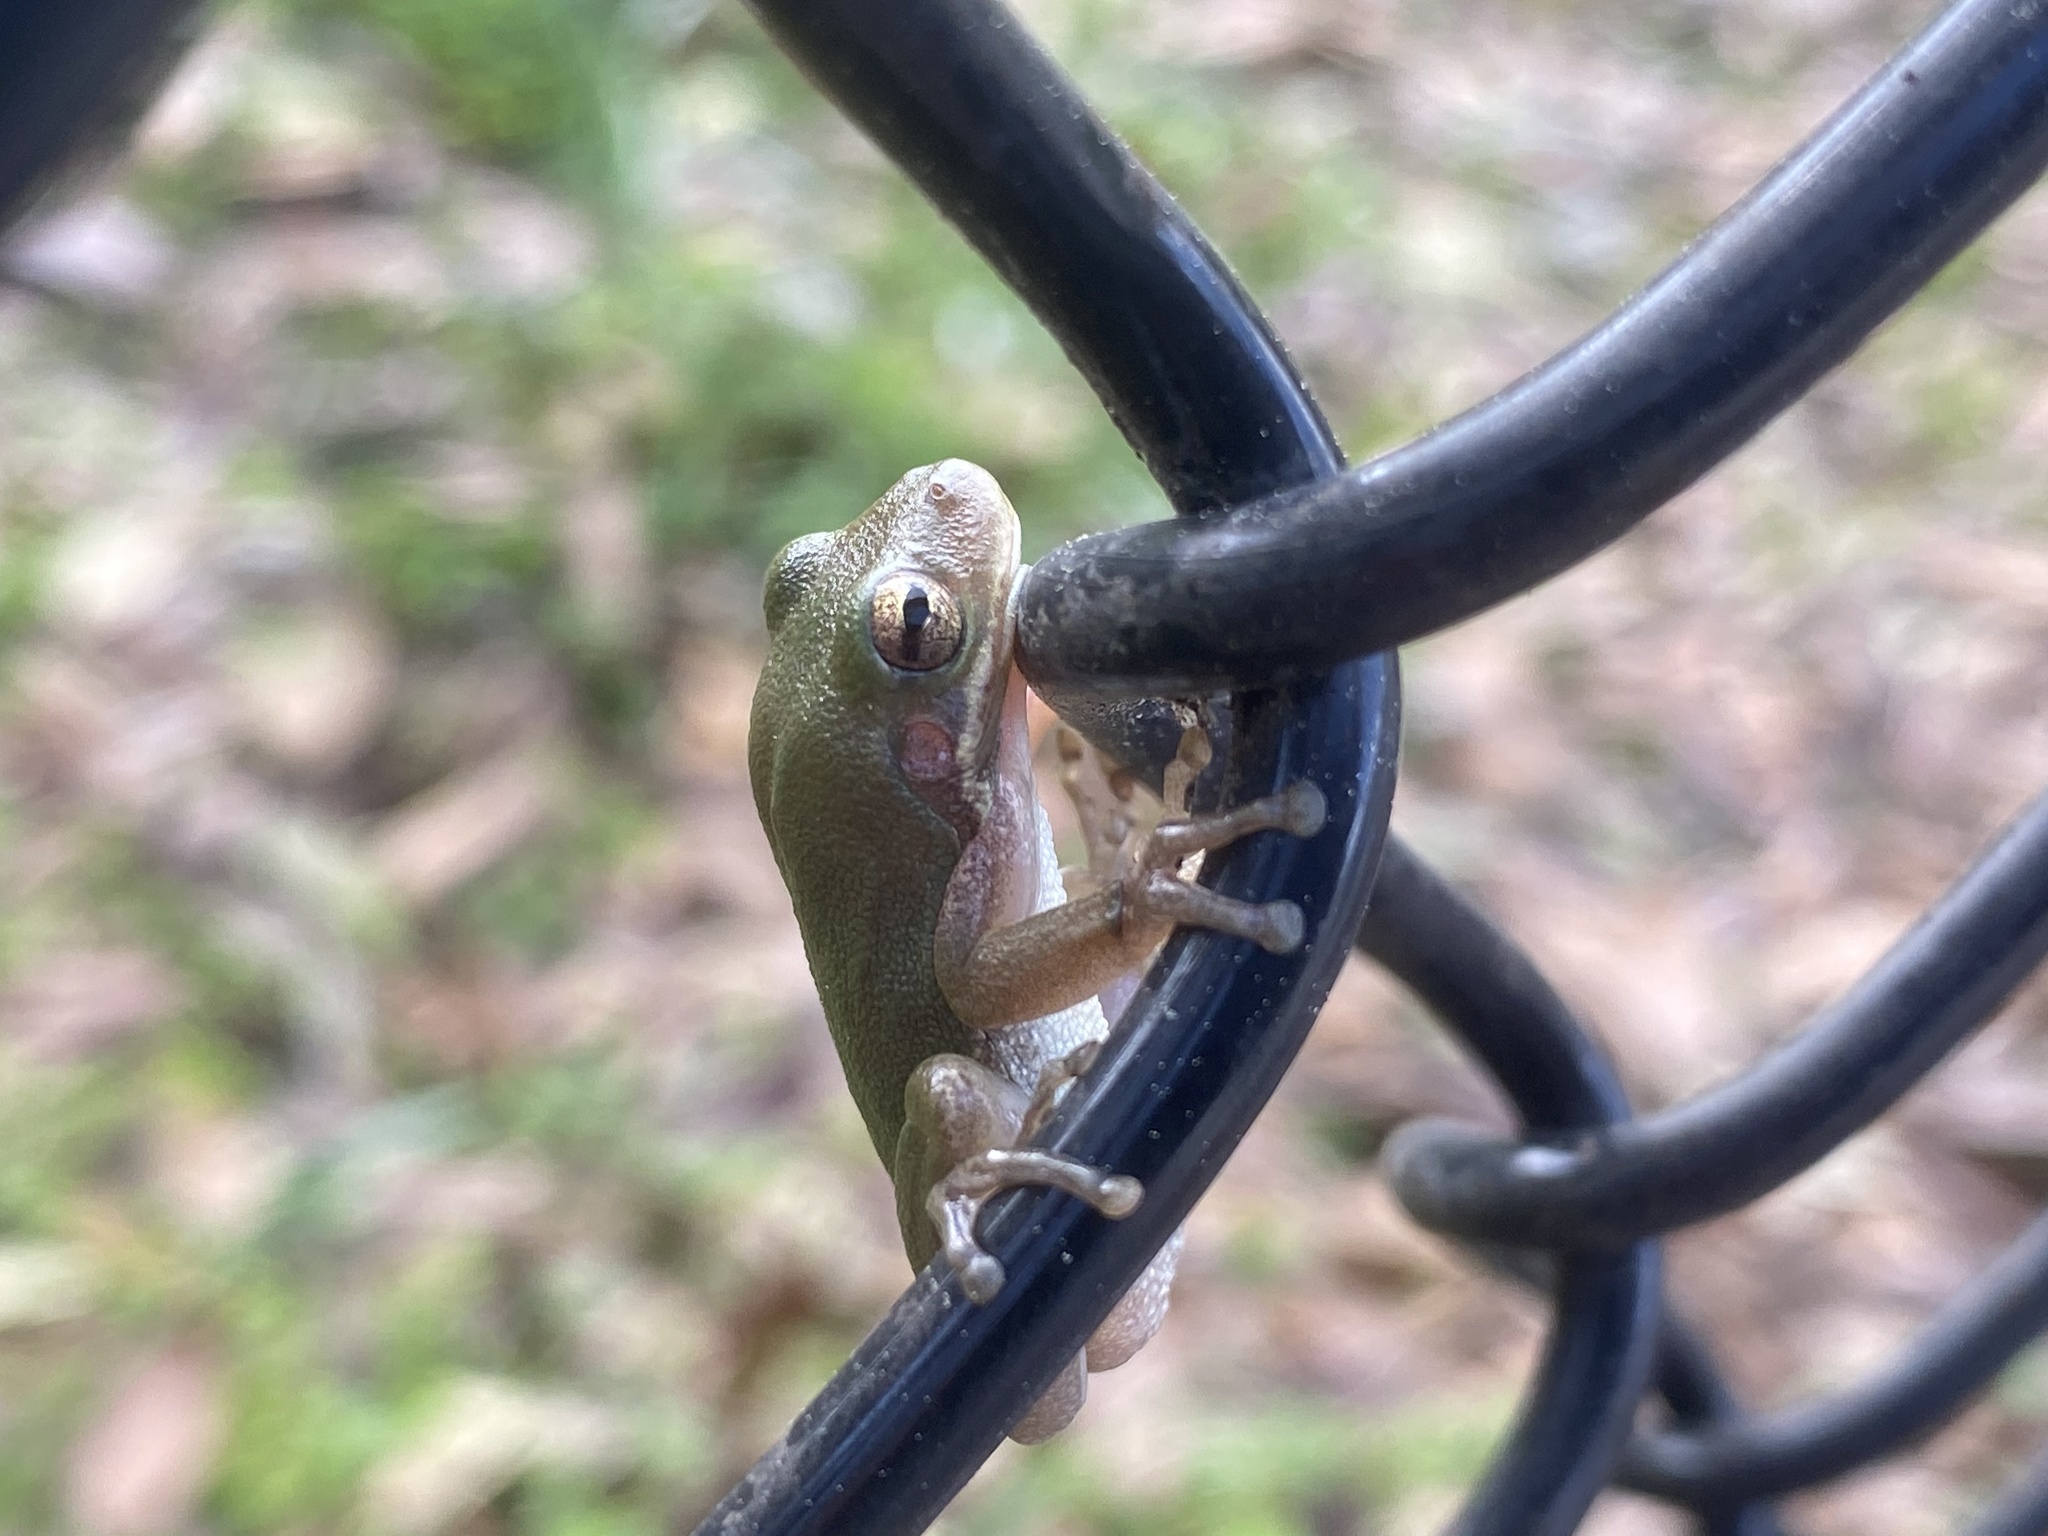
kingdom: Animalia
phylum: Chordata
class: Amphibia
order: Anura
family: Hylidae
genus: Dryophytes
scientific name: Dryophytes squirellus
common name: Squirrel treefrog
